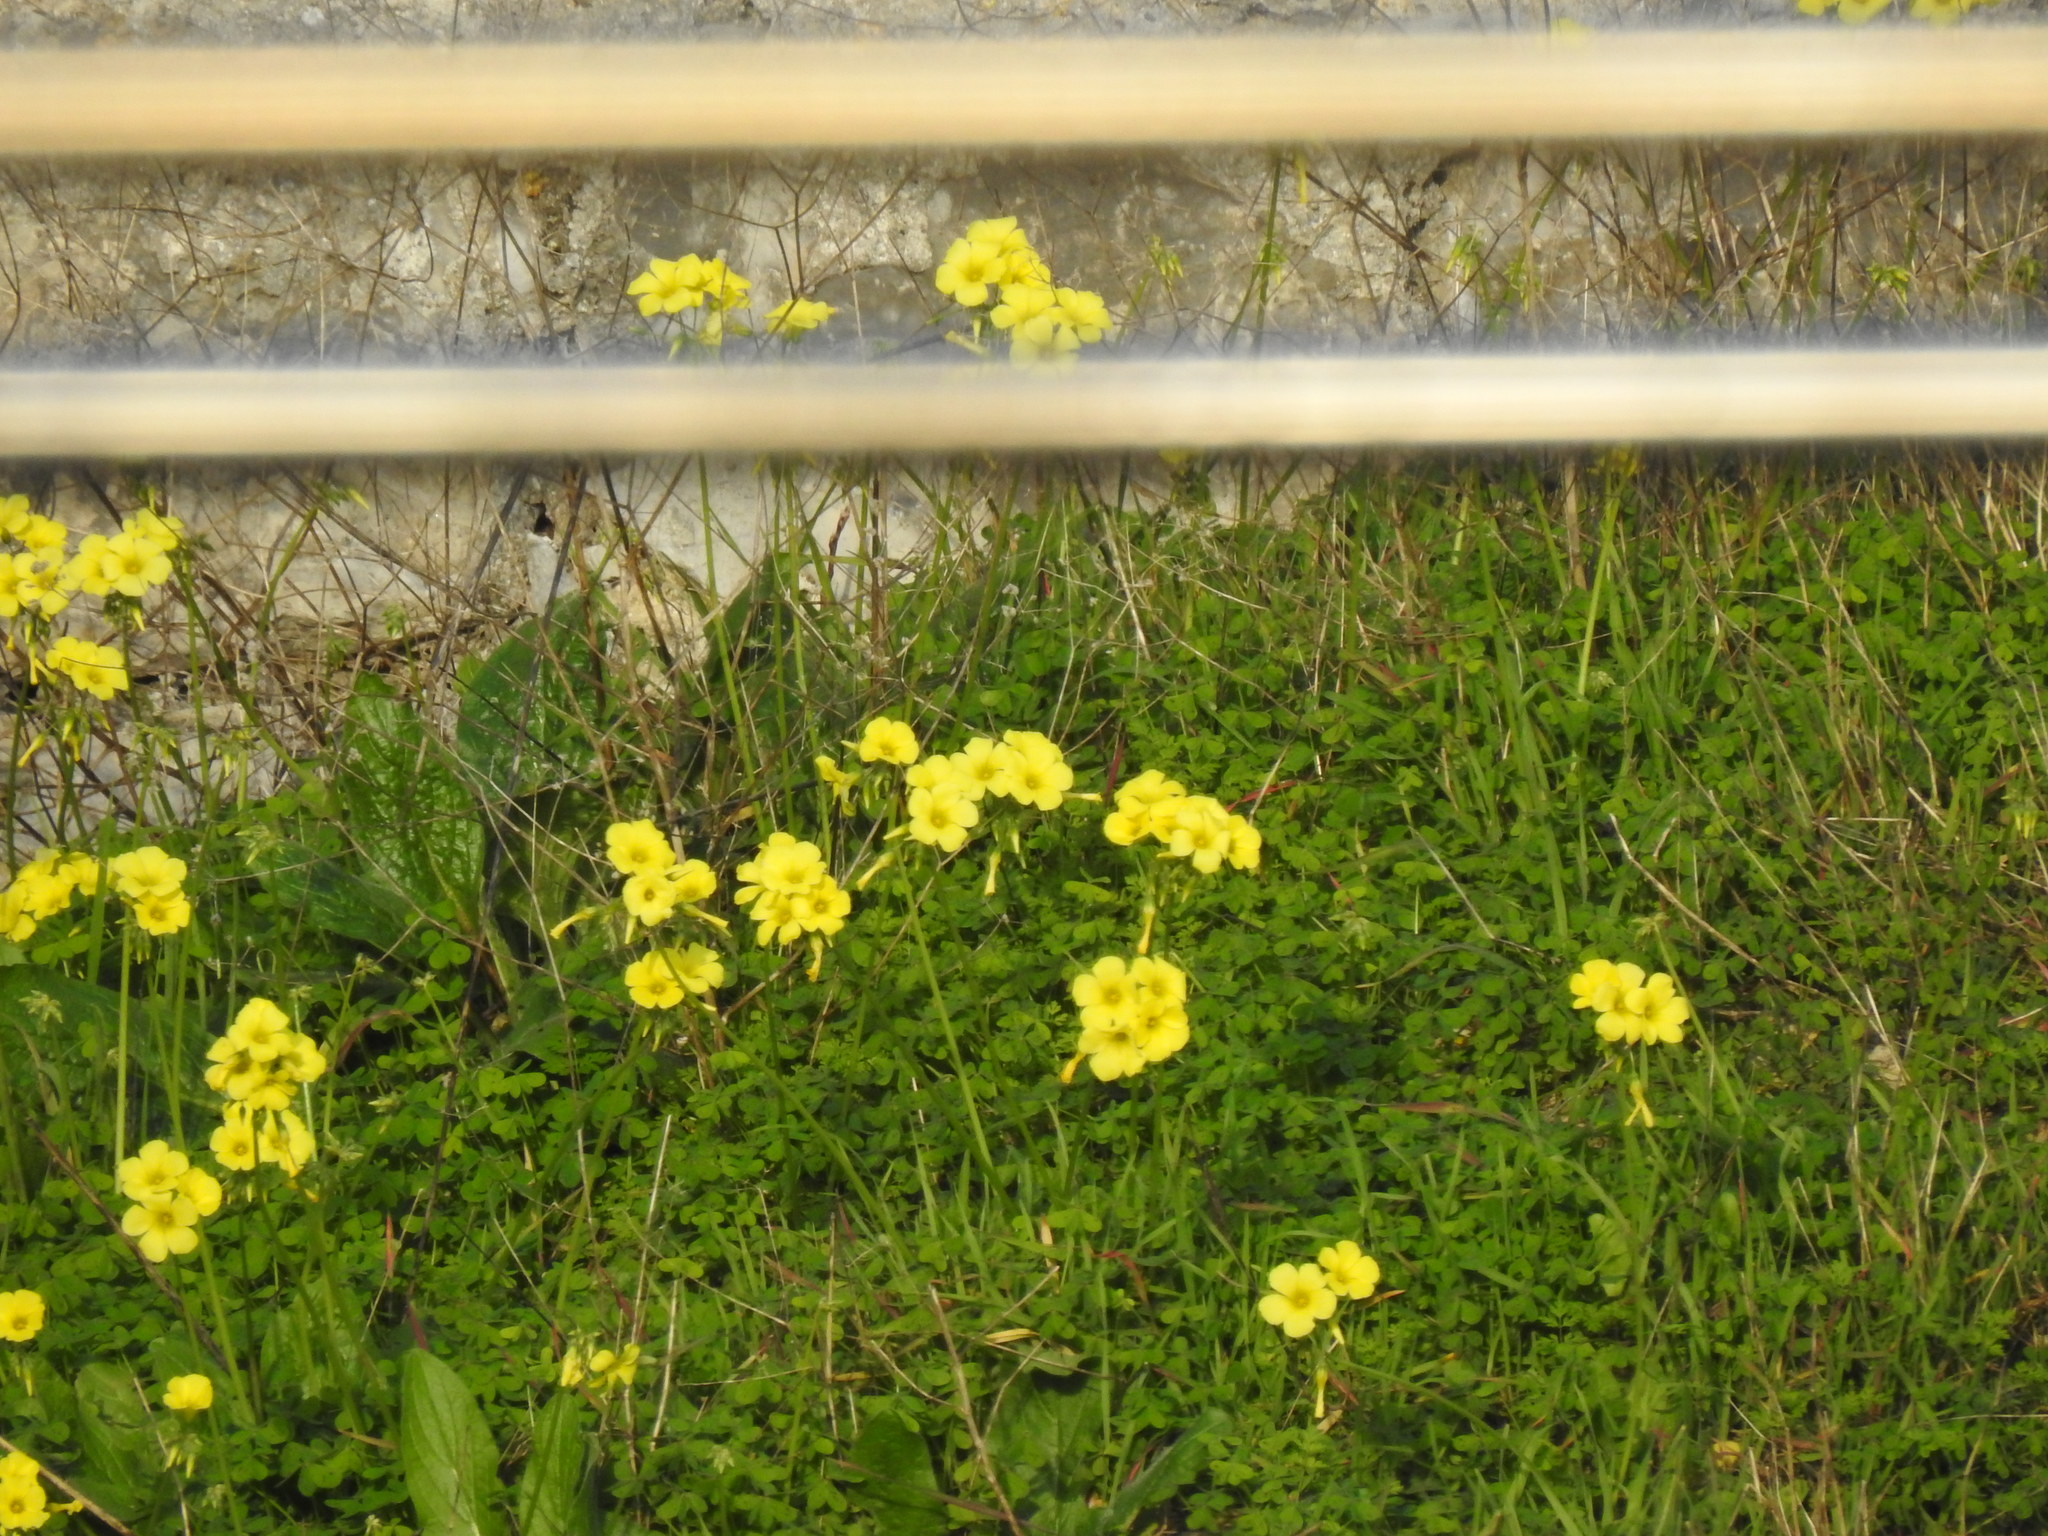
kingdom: Plantae
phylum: Tracheophyta
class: Magnoliopsida
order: Oxalidales
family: Oxalidaceae
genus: Oxalis
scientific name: Oxalis pes-caprae
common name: Bermuda-buttercup
